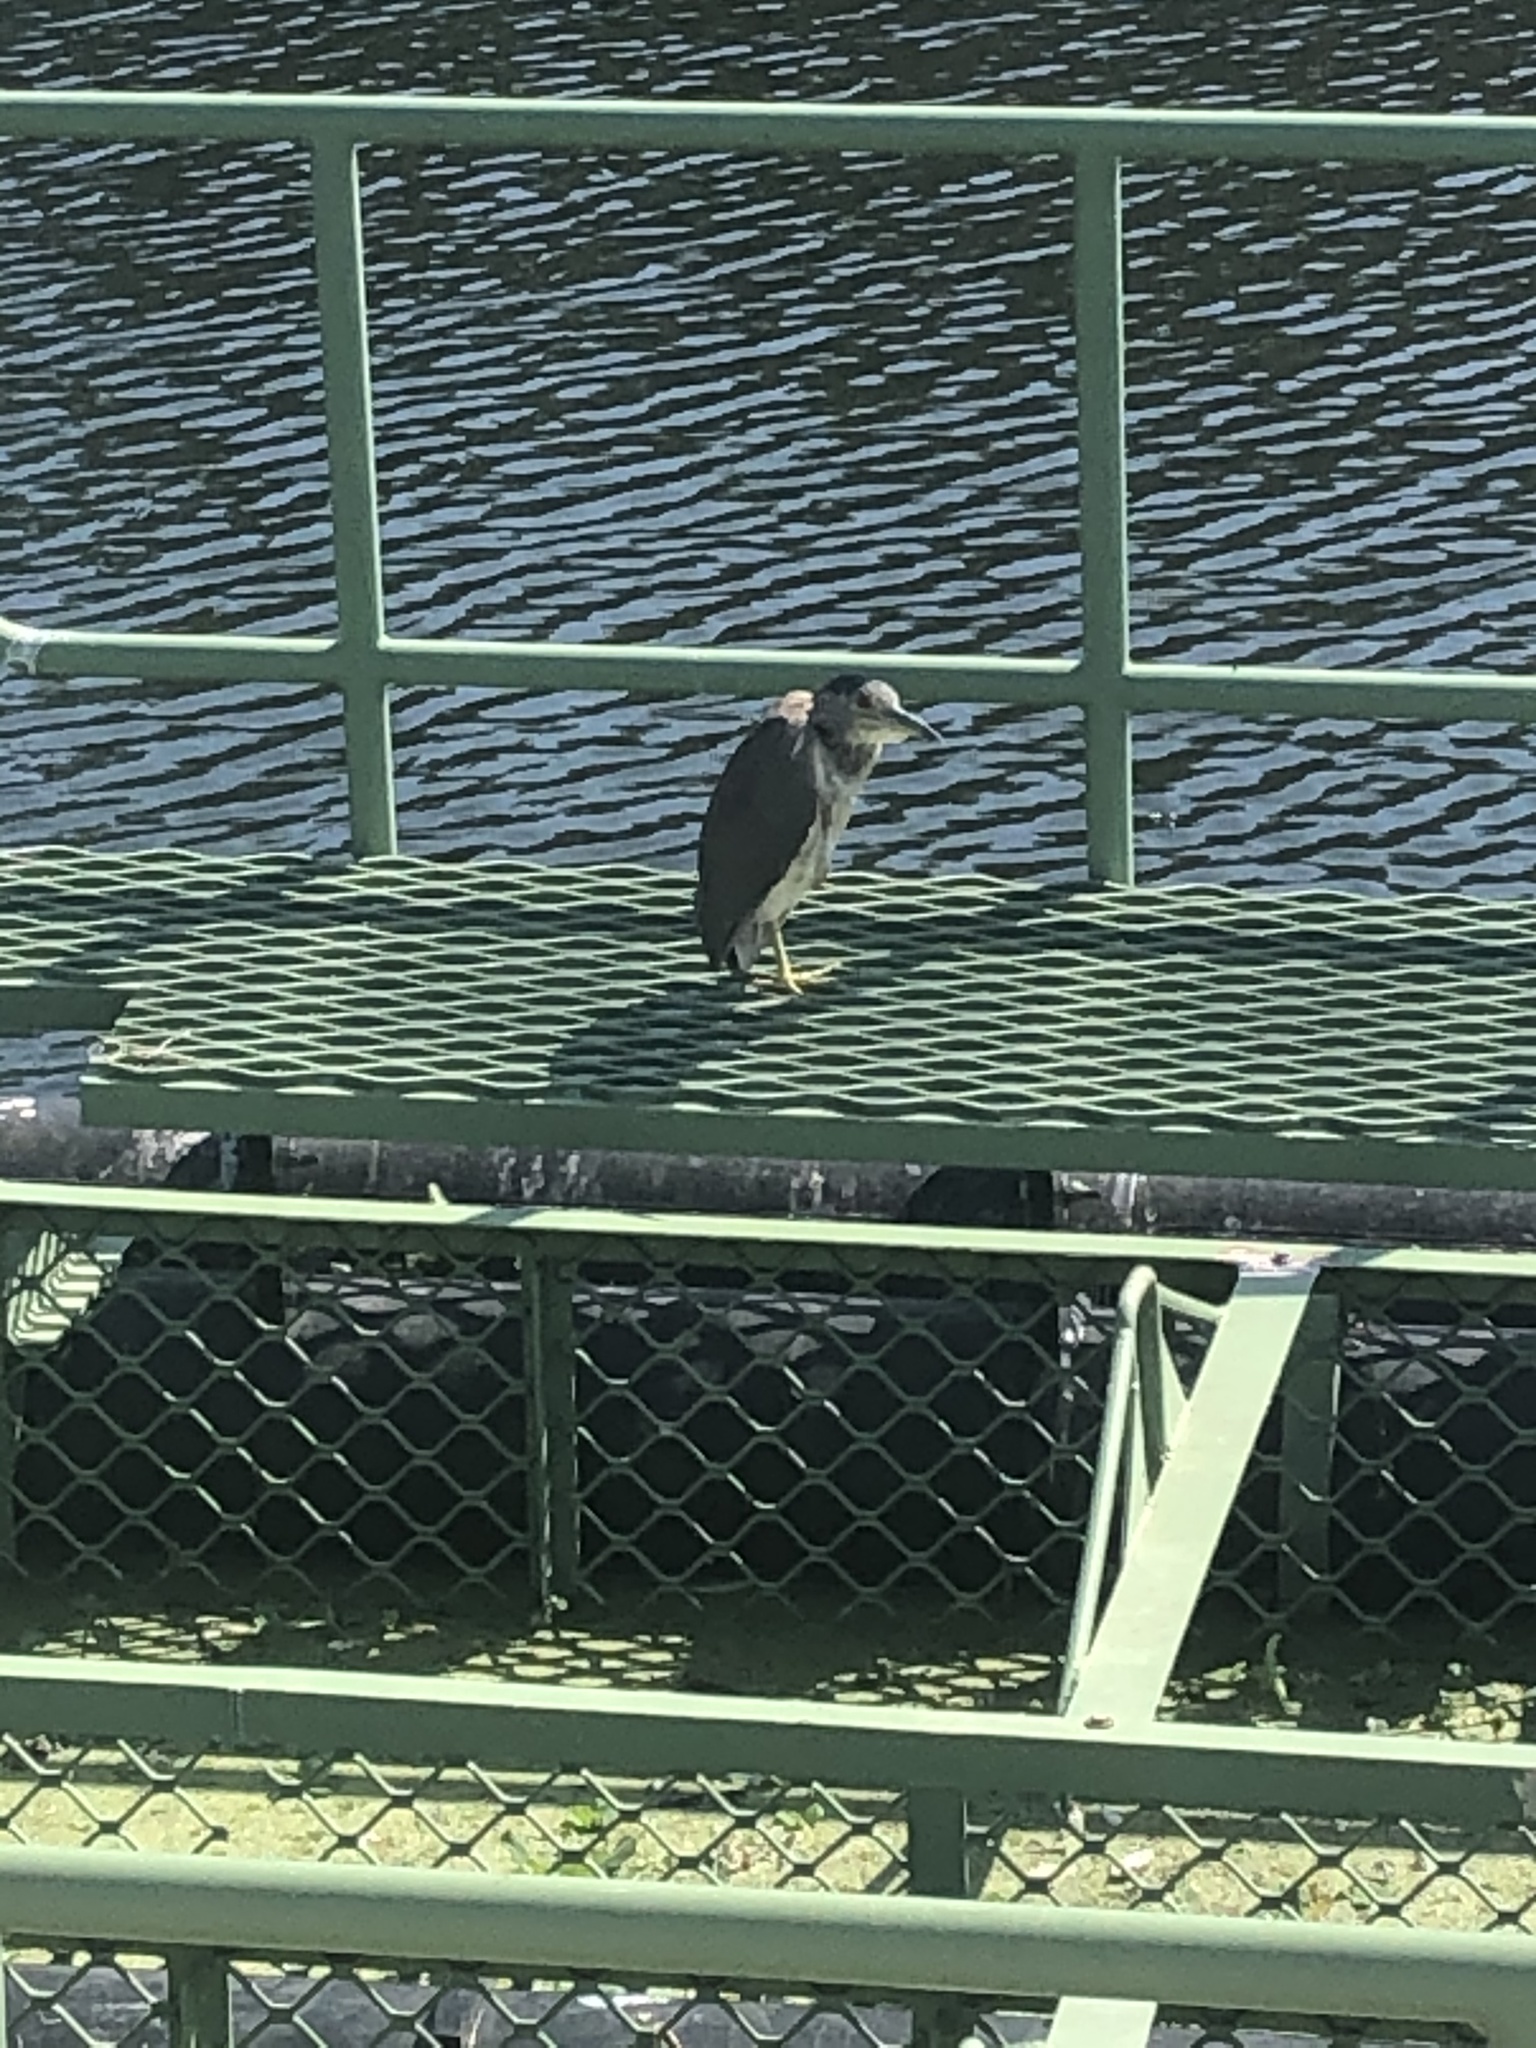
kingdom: Animalia
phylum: Chordata
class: Aves
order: Pelecaniformes
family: Ardeidae
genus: Nycticorax
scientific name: Nycticorax nycticorax
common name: Black-crowned night heron
